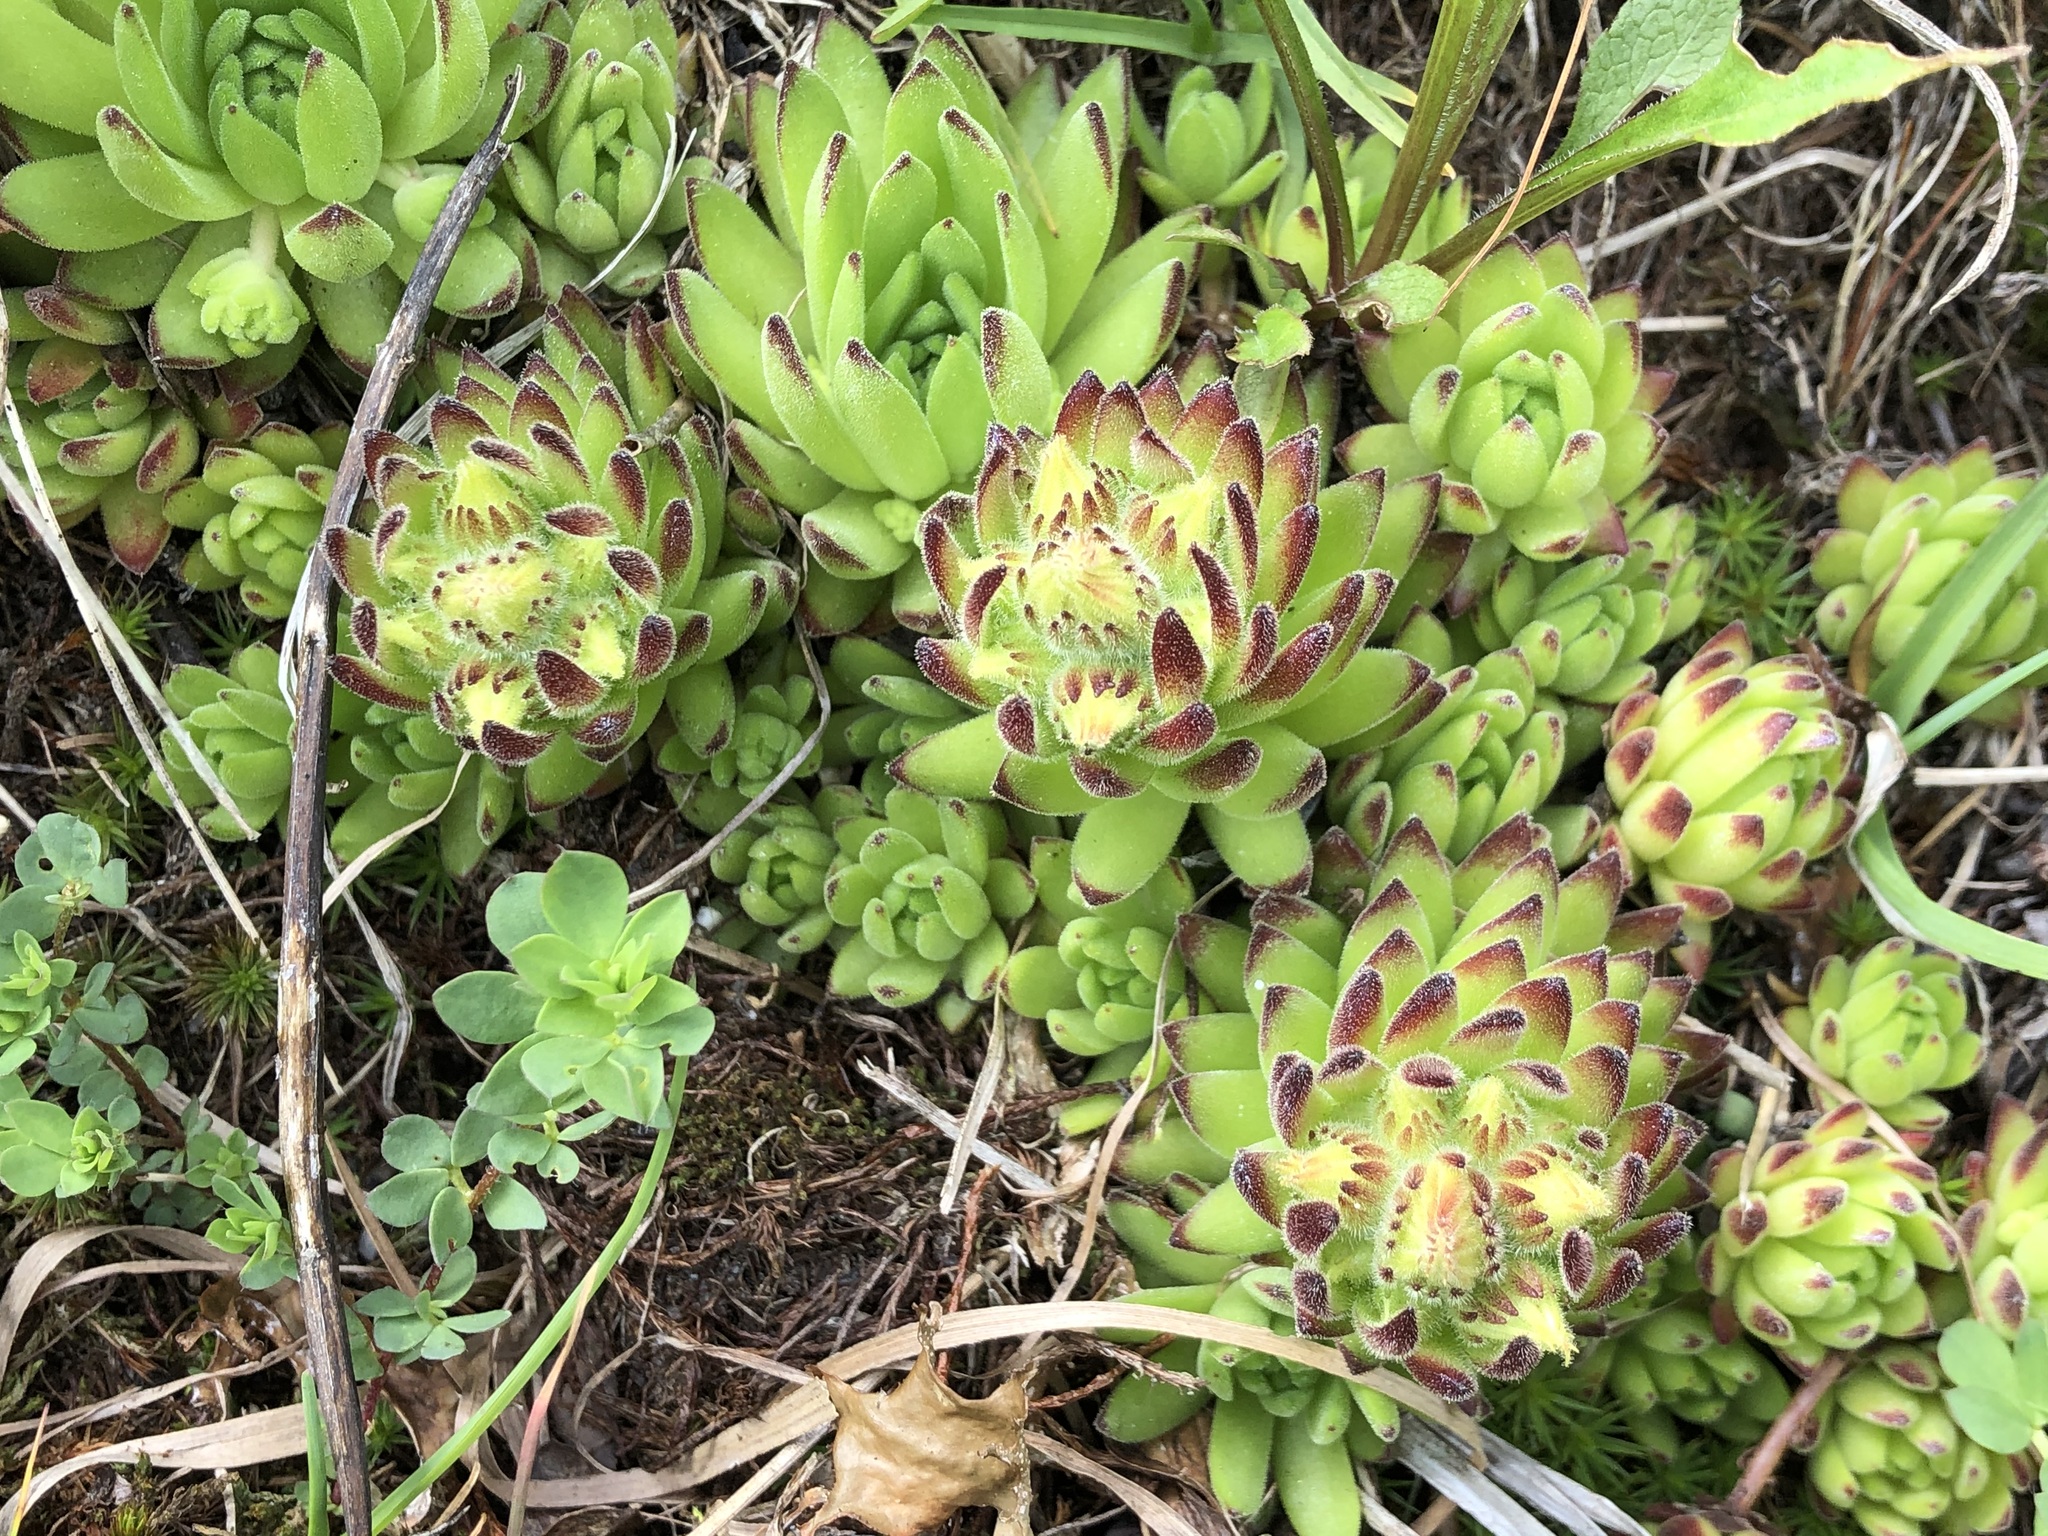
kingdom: Plantae
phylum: Tracheophyta
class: Magnoliopsida
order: Saxifragales
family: Crassulaceae
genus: Sempervivum
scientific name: Sempervivum montanum
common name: Mountain house-leek
